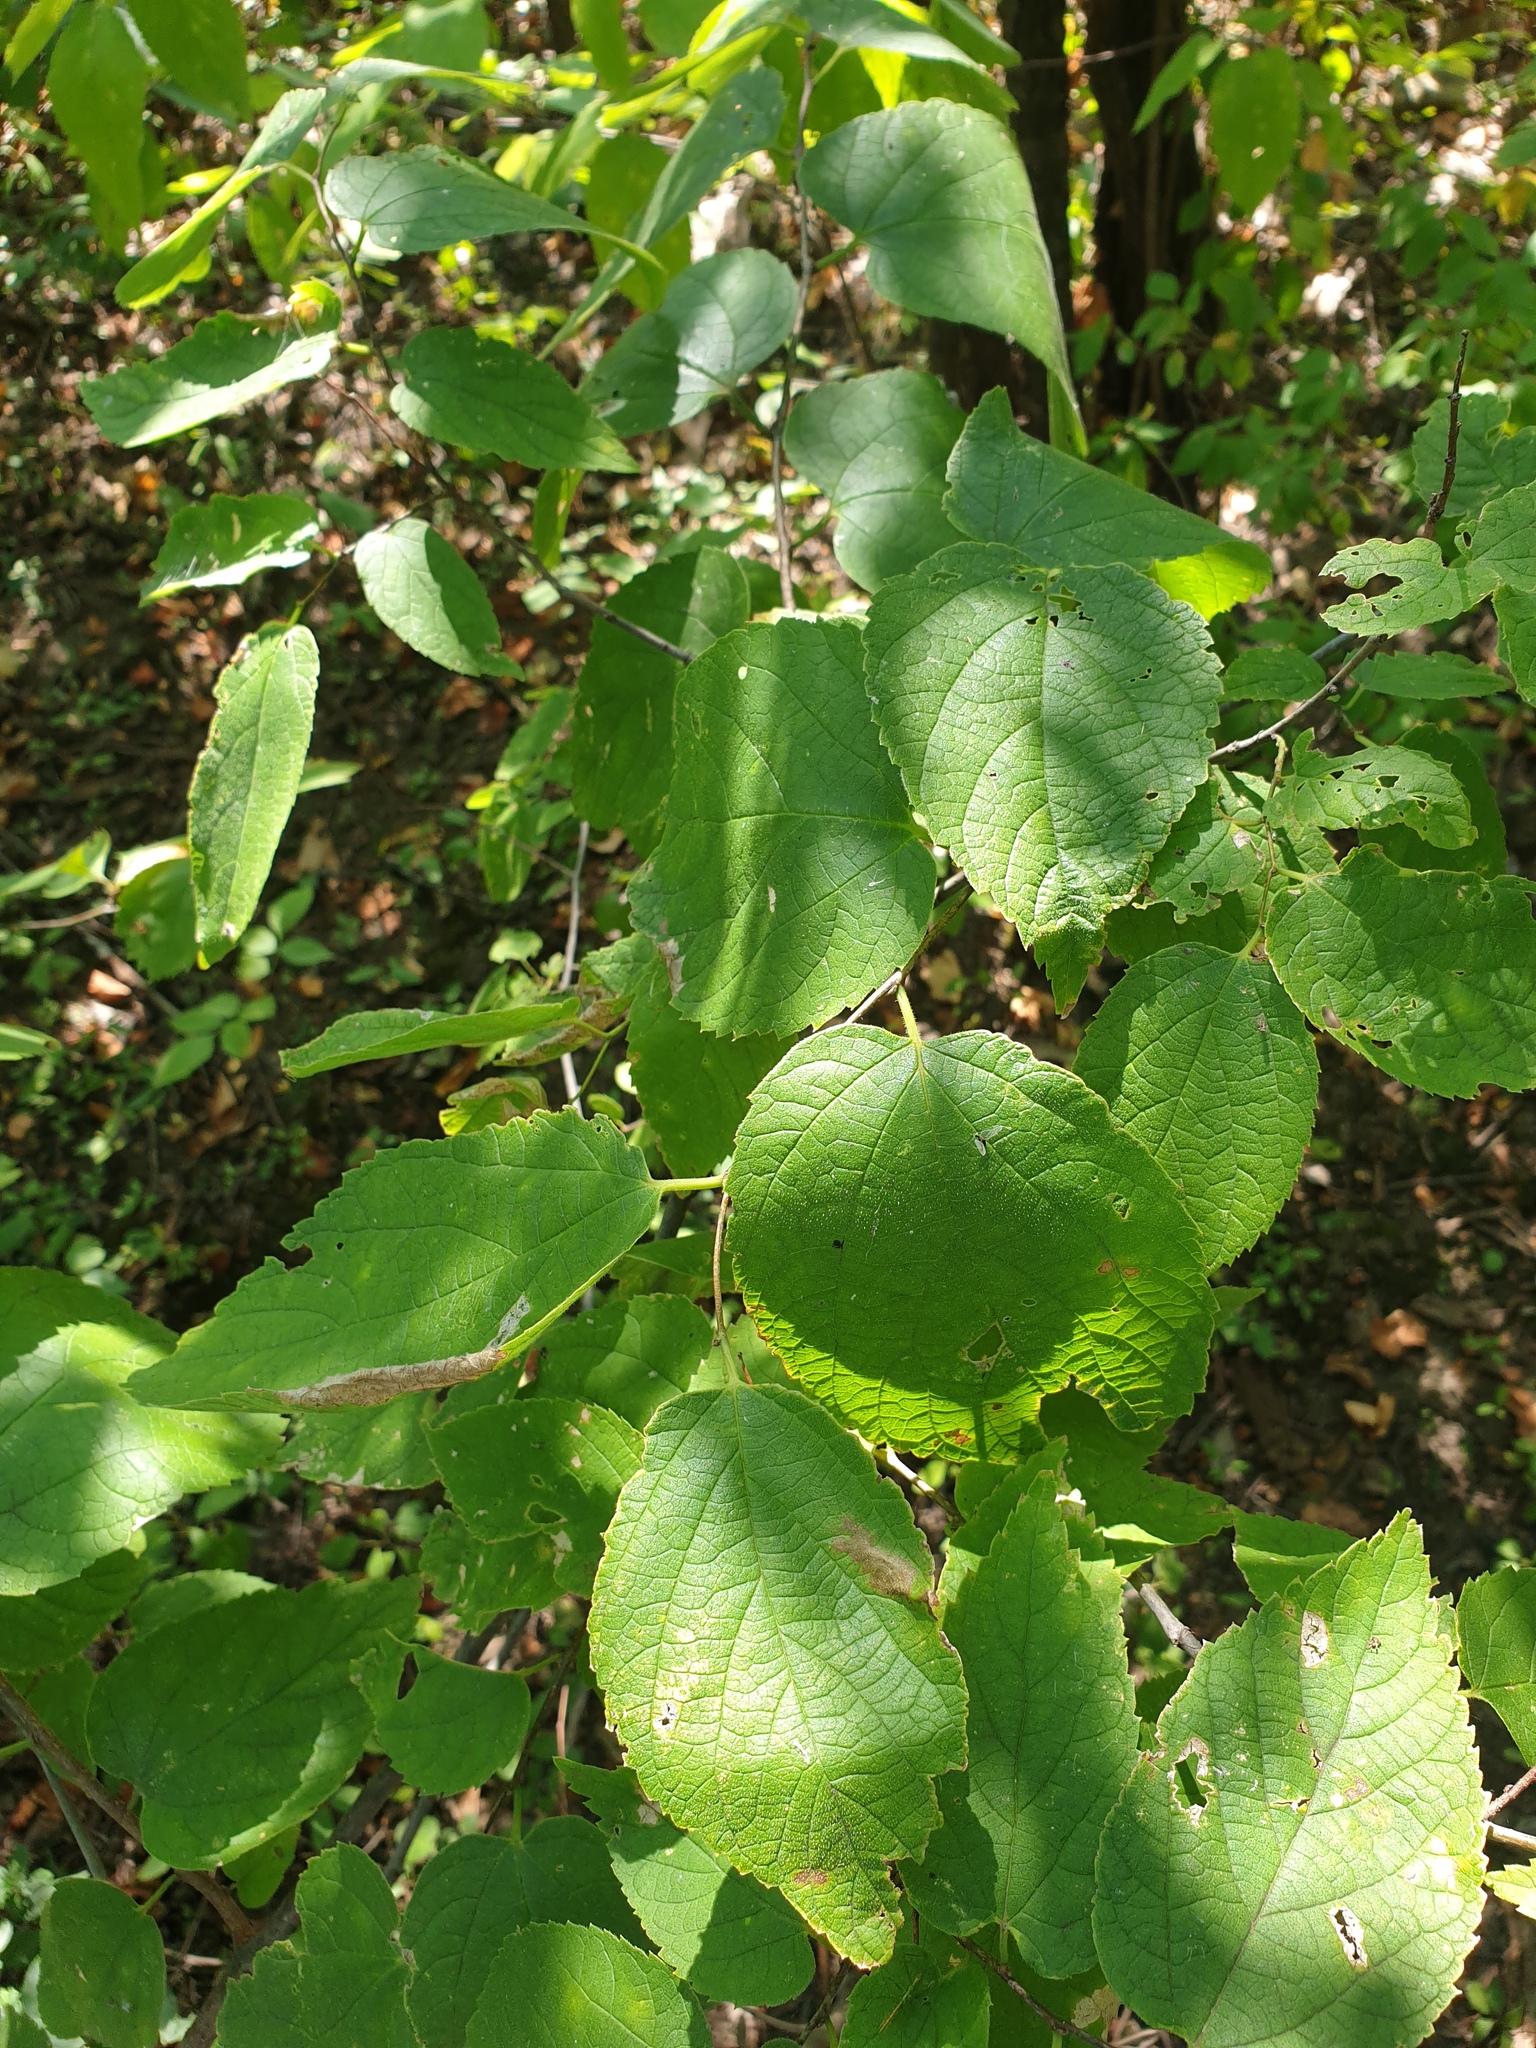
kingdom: Plantae
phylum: Tracheophyta
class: Magnoliopsida
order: Rosales
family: Cannabaceae
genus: Celtis
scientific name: Celtis occidentalis
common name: Common hackberry
